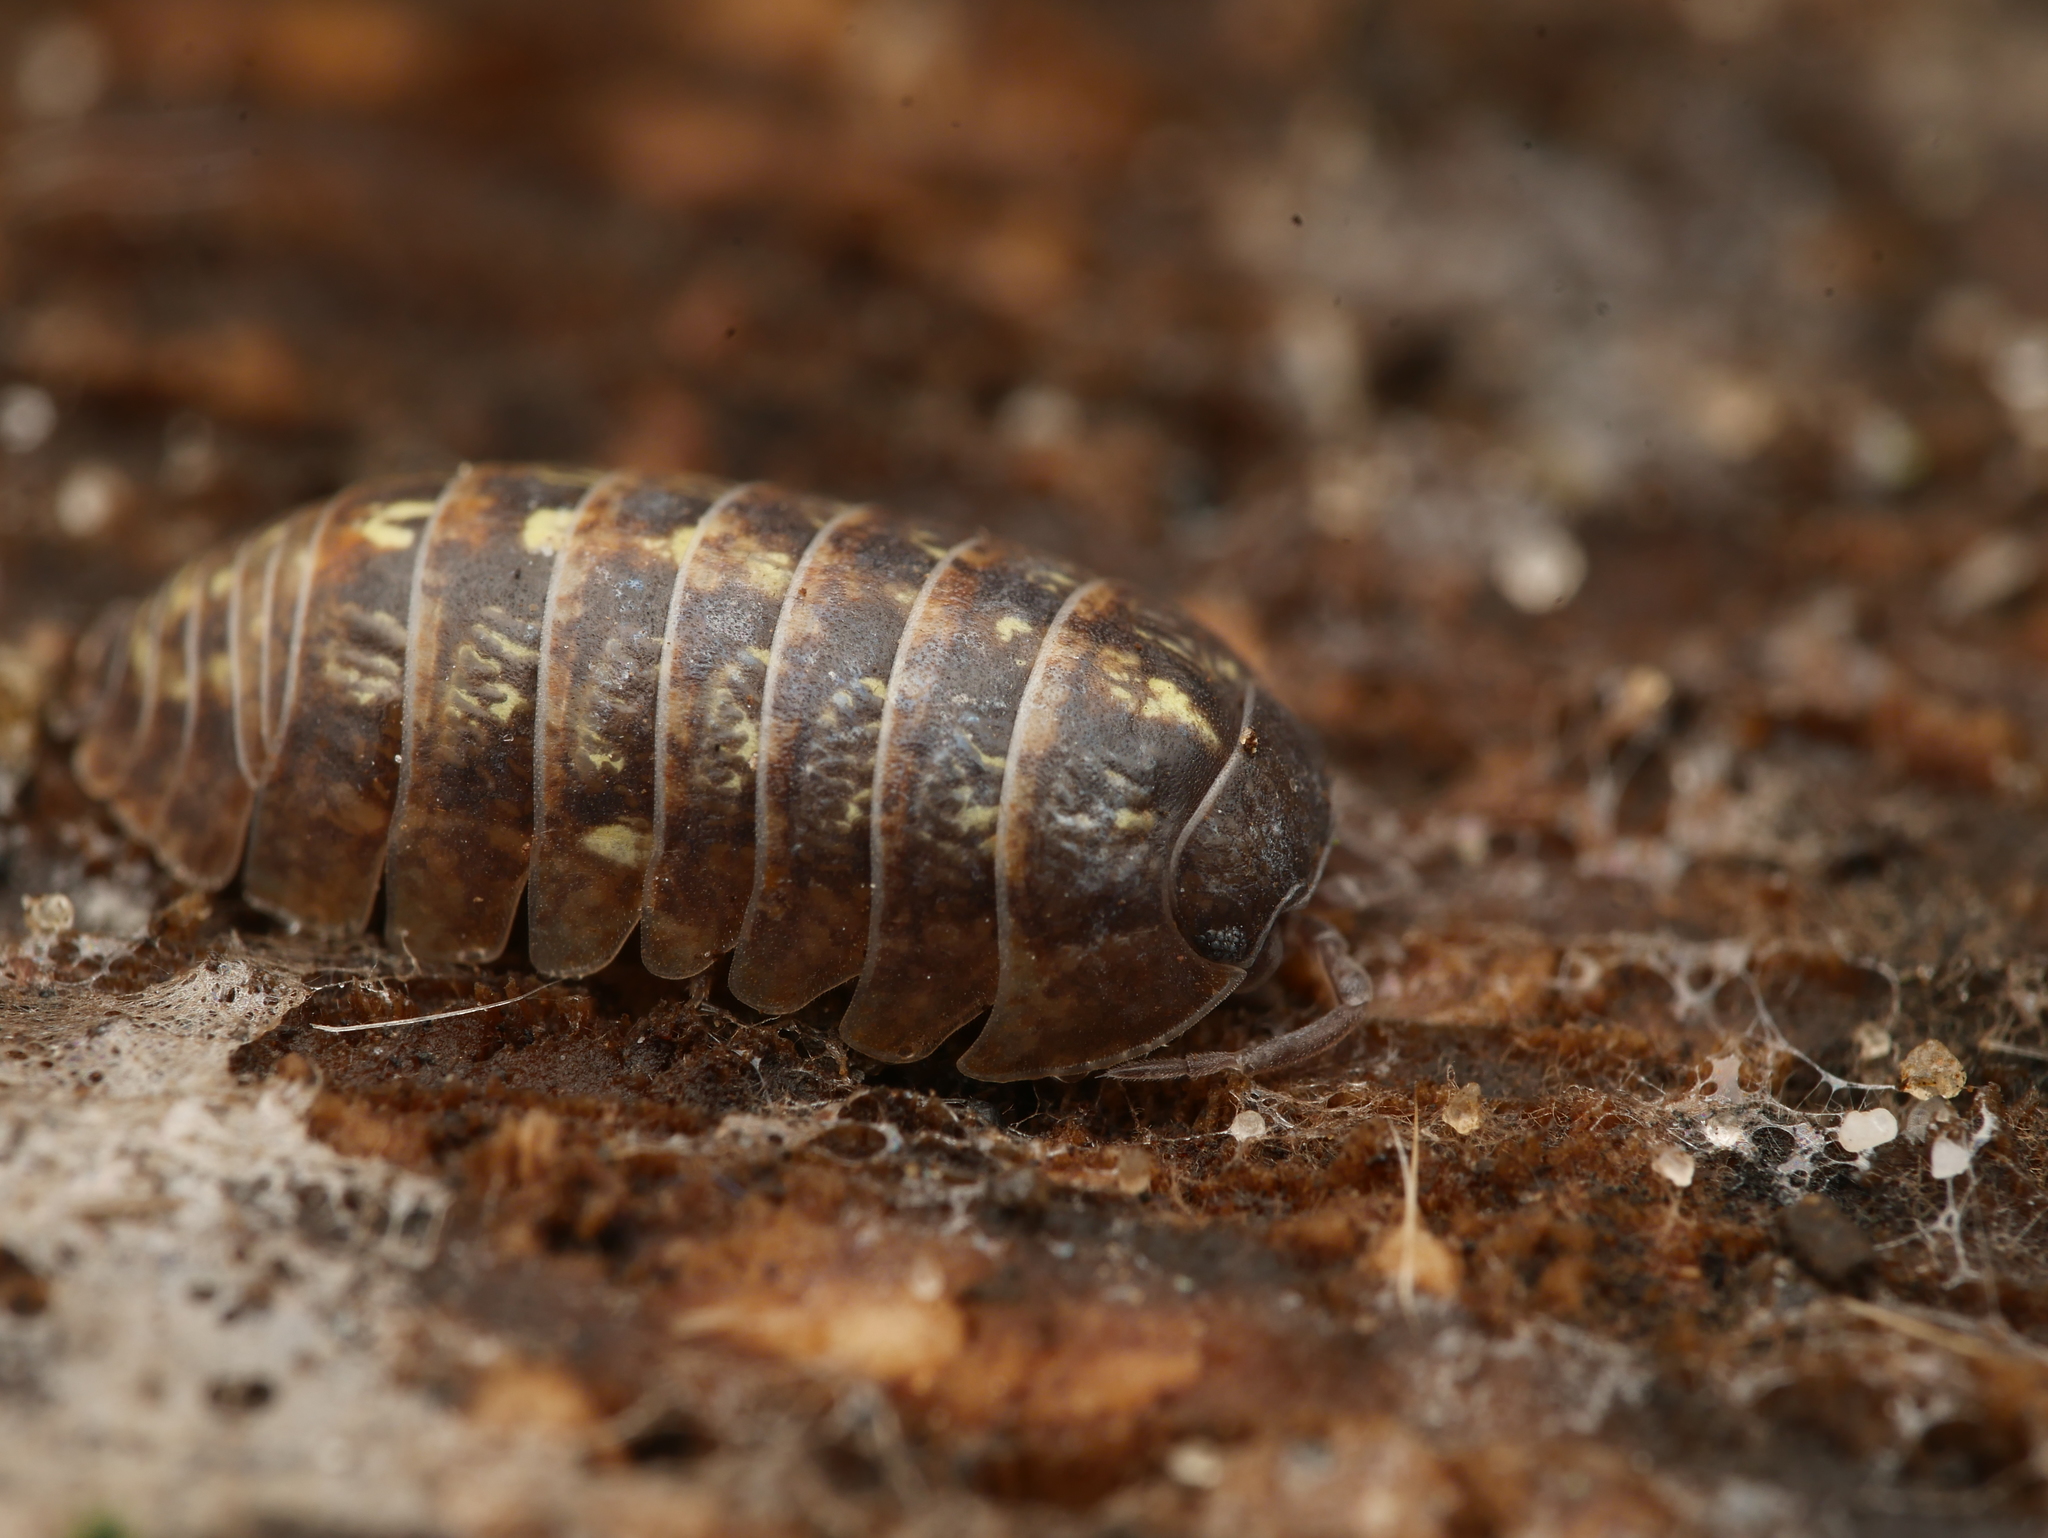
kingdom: Animalia
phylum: Arthropoda
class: Malacostraca
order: Isopoda
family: Armadillidiidae
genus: Armadillidium
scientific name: Armadillidium vulgare
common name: Common pill woodlouse
